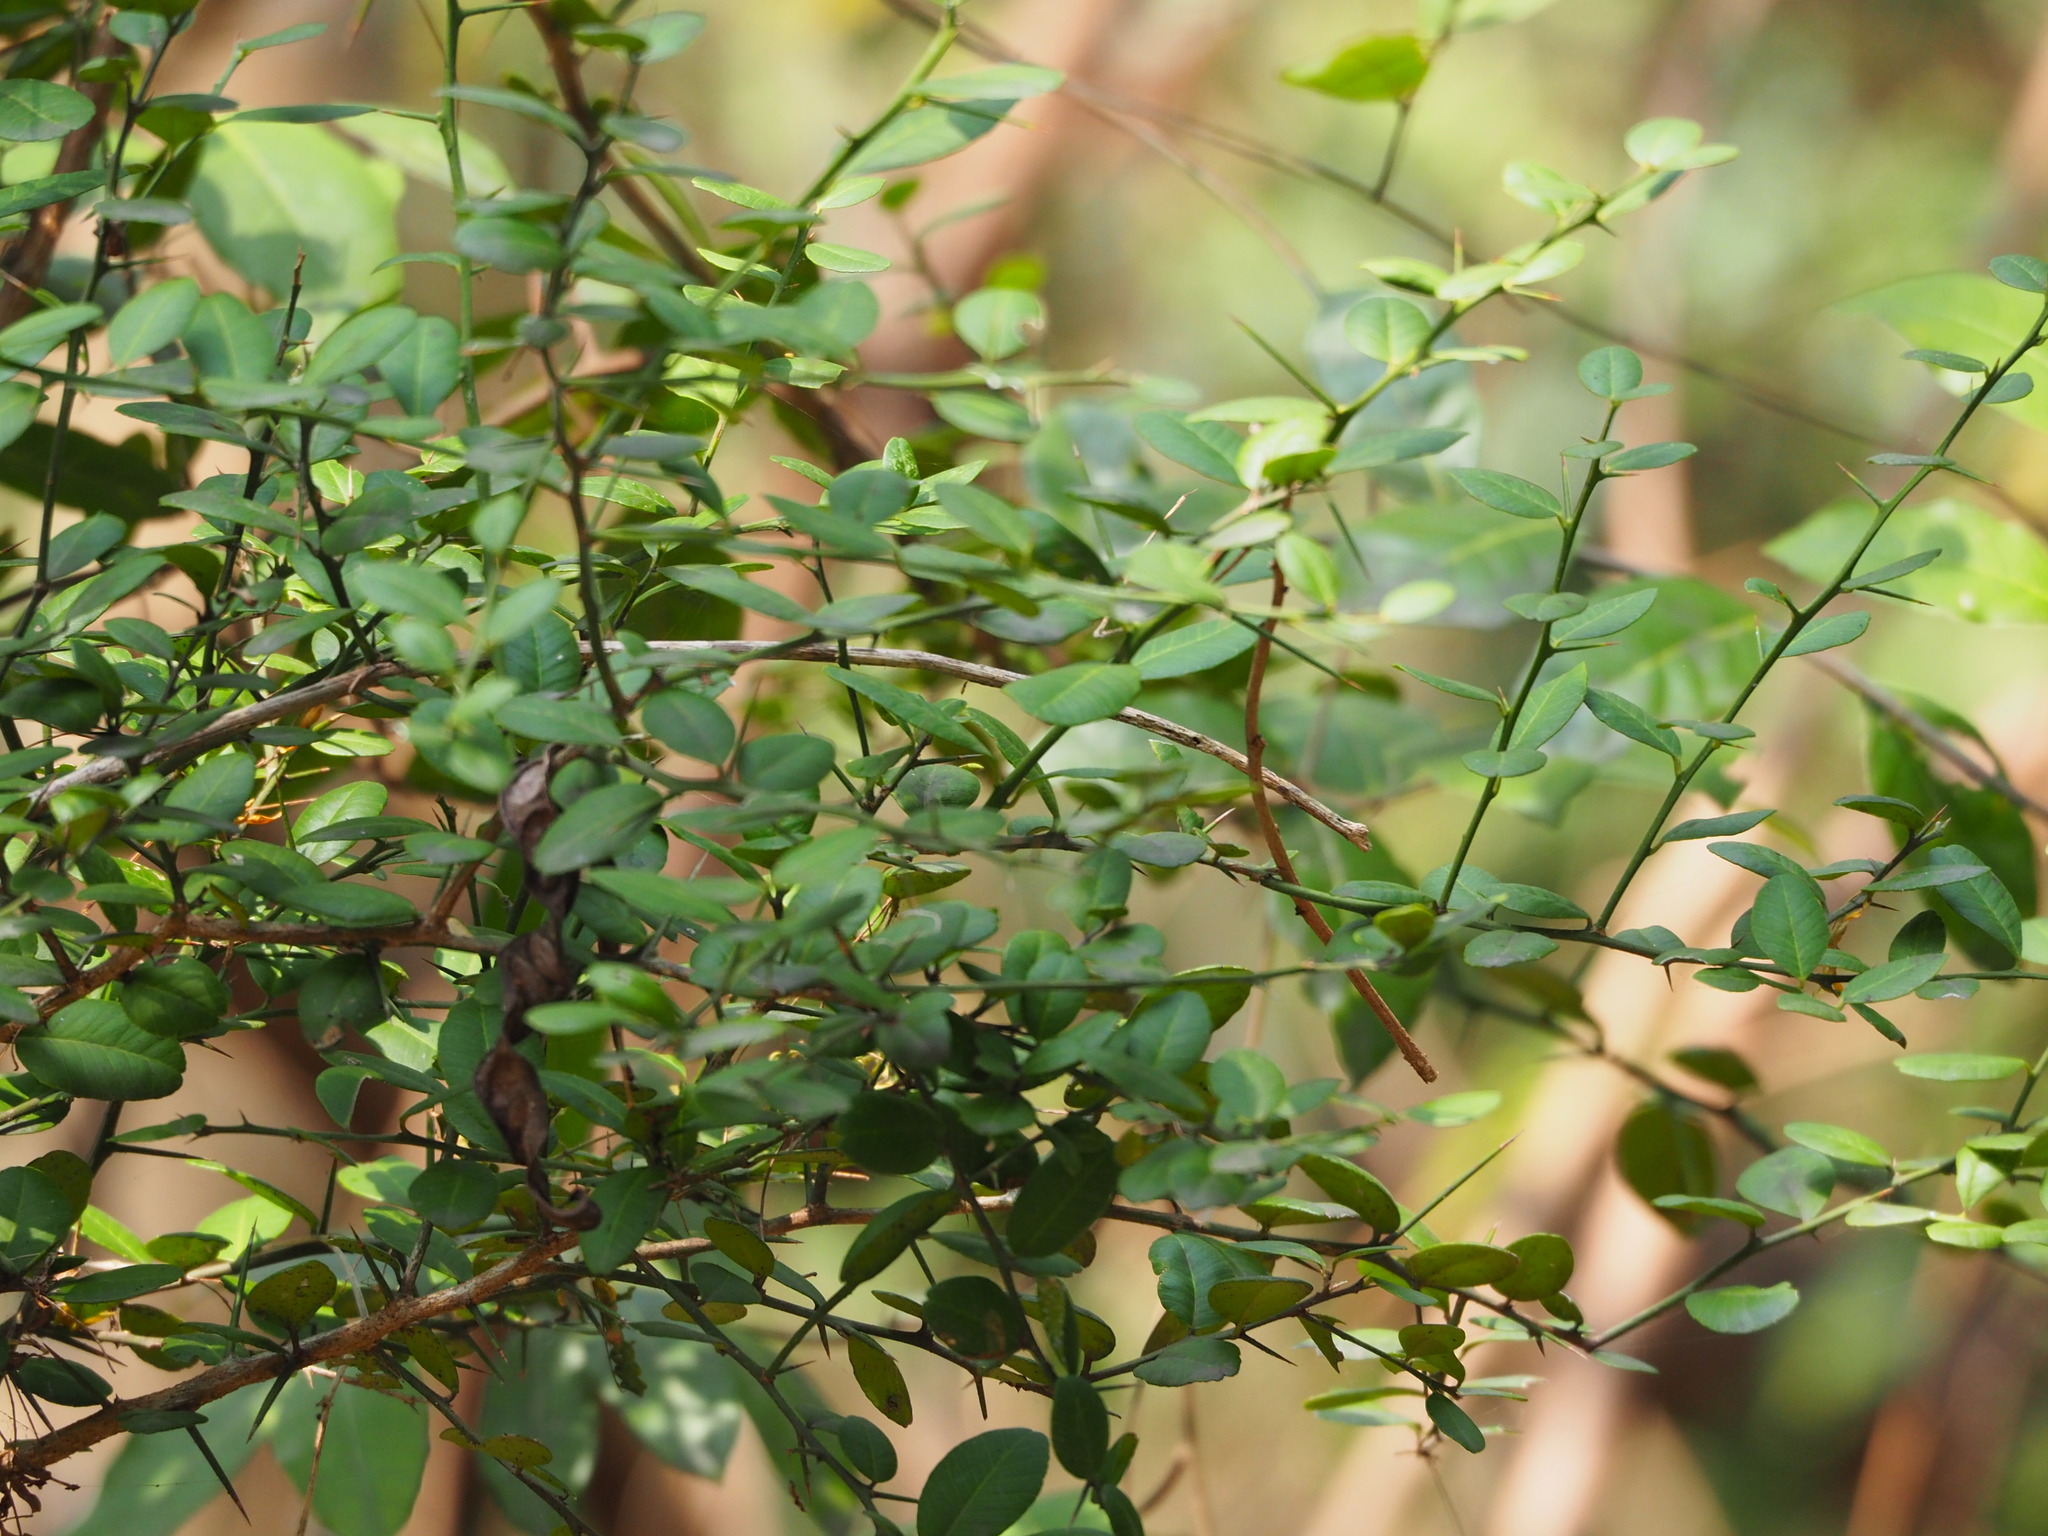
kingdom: Plantae
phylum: Tracheophyta
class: Magnoliopsida
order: Sapindales
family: Rutaceae
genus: Atalantia
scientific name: Atalantia buxifolia
